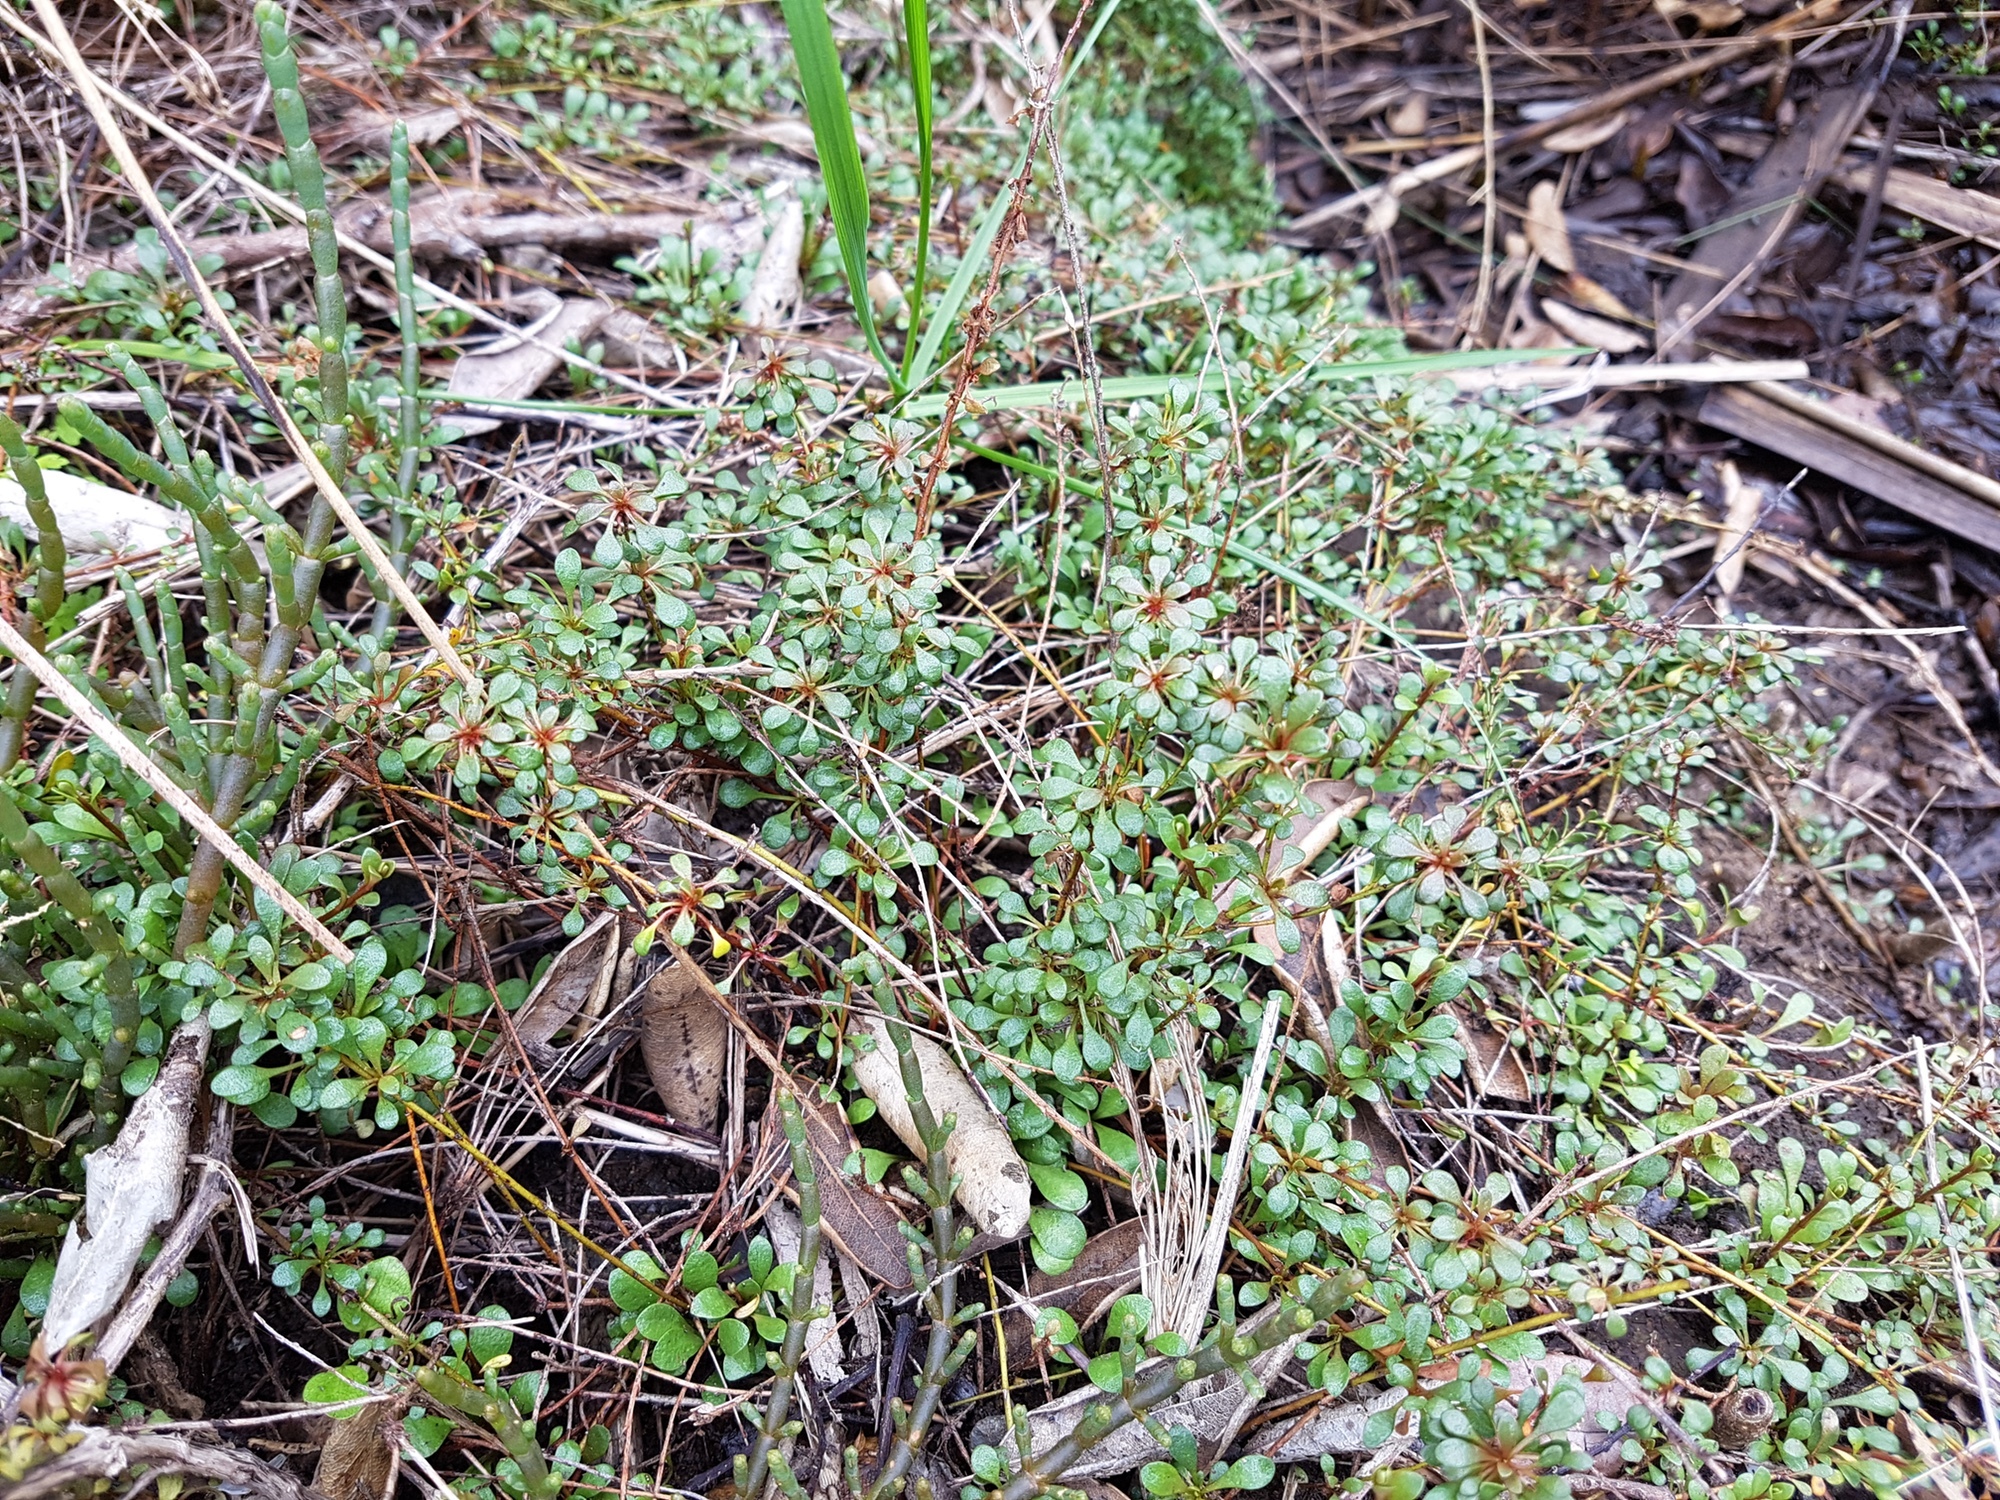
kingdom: Plantae
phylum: Tracheophyta
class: Magnoliopsida
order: Ericales
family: Primulaceae
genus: Samolus
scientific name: Samolus repens
